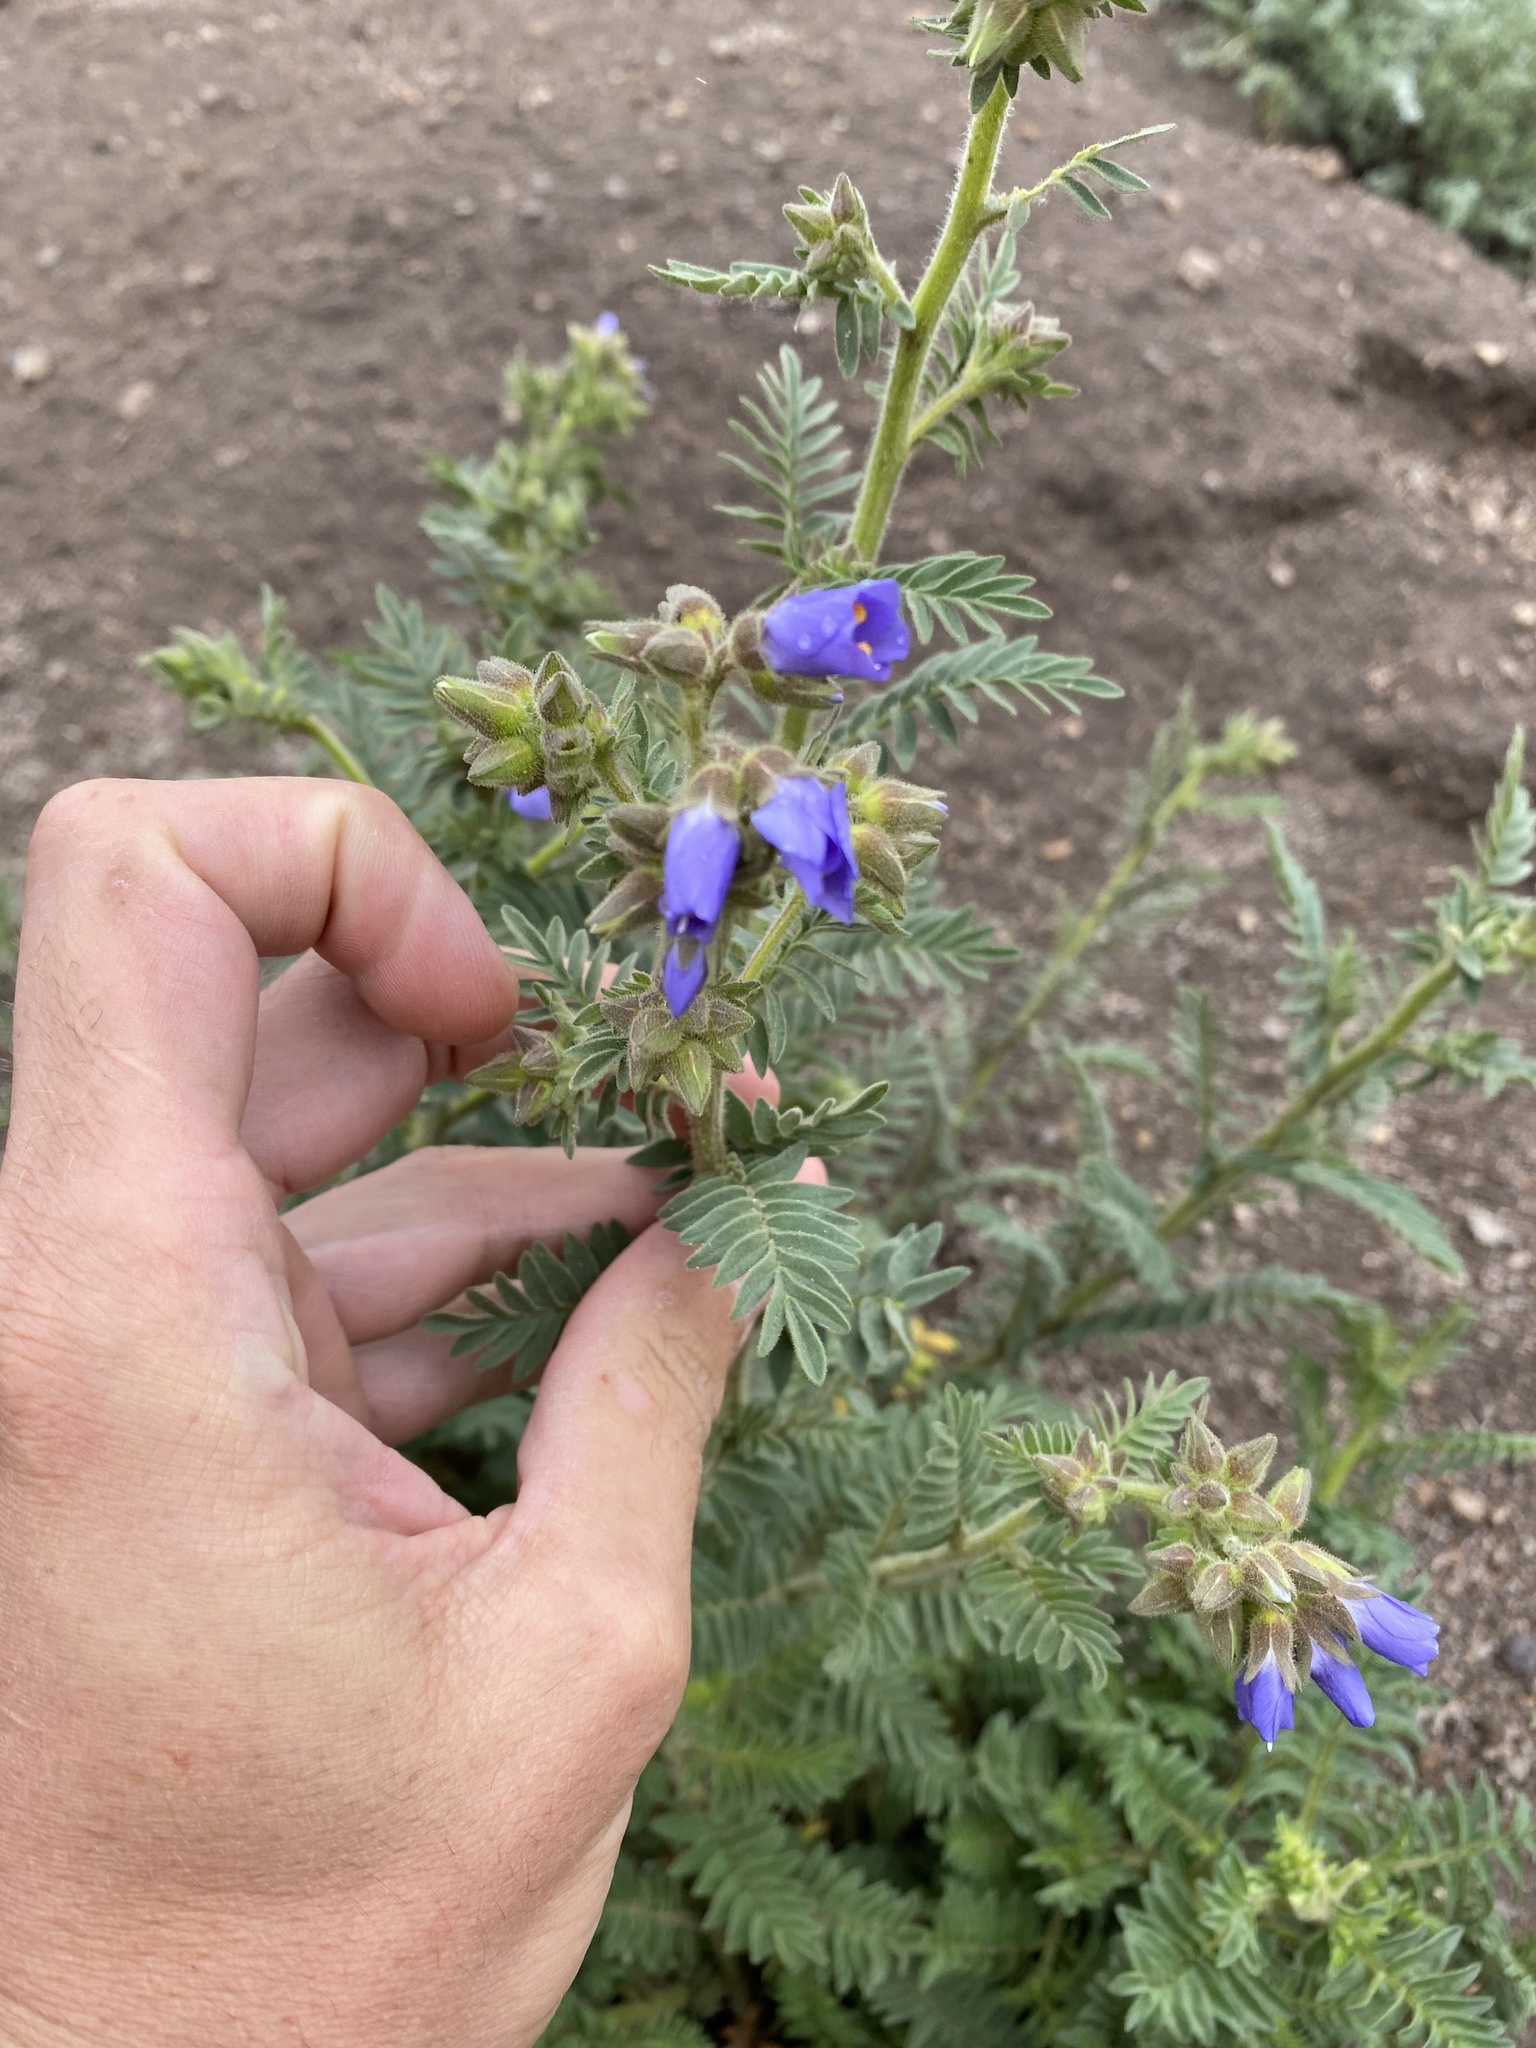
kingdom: Plantae
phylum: Tracheophyta
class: Magnoliopsida
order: Ericales
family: Polemoniaceae
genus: Polemonium
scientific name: Polemonium foliosissimum
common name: Leafy jacob's-ladder
